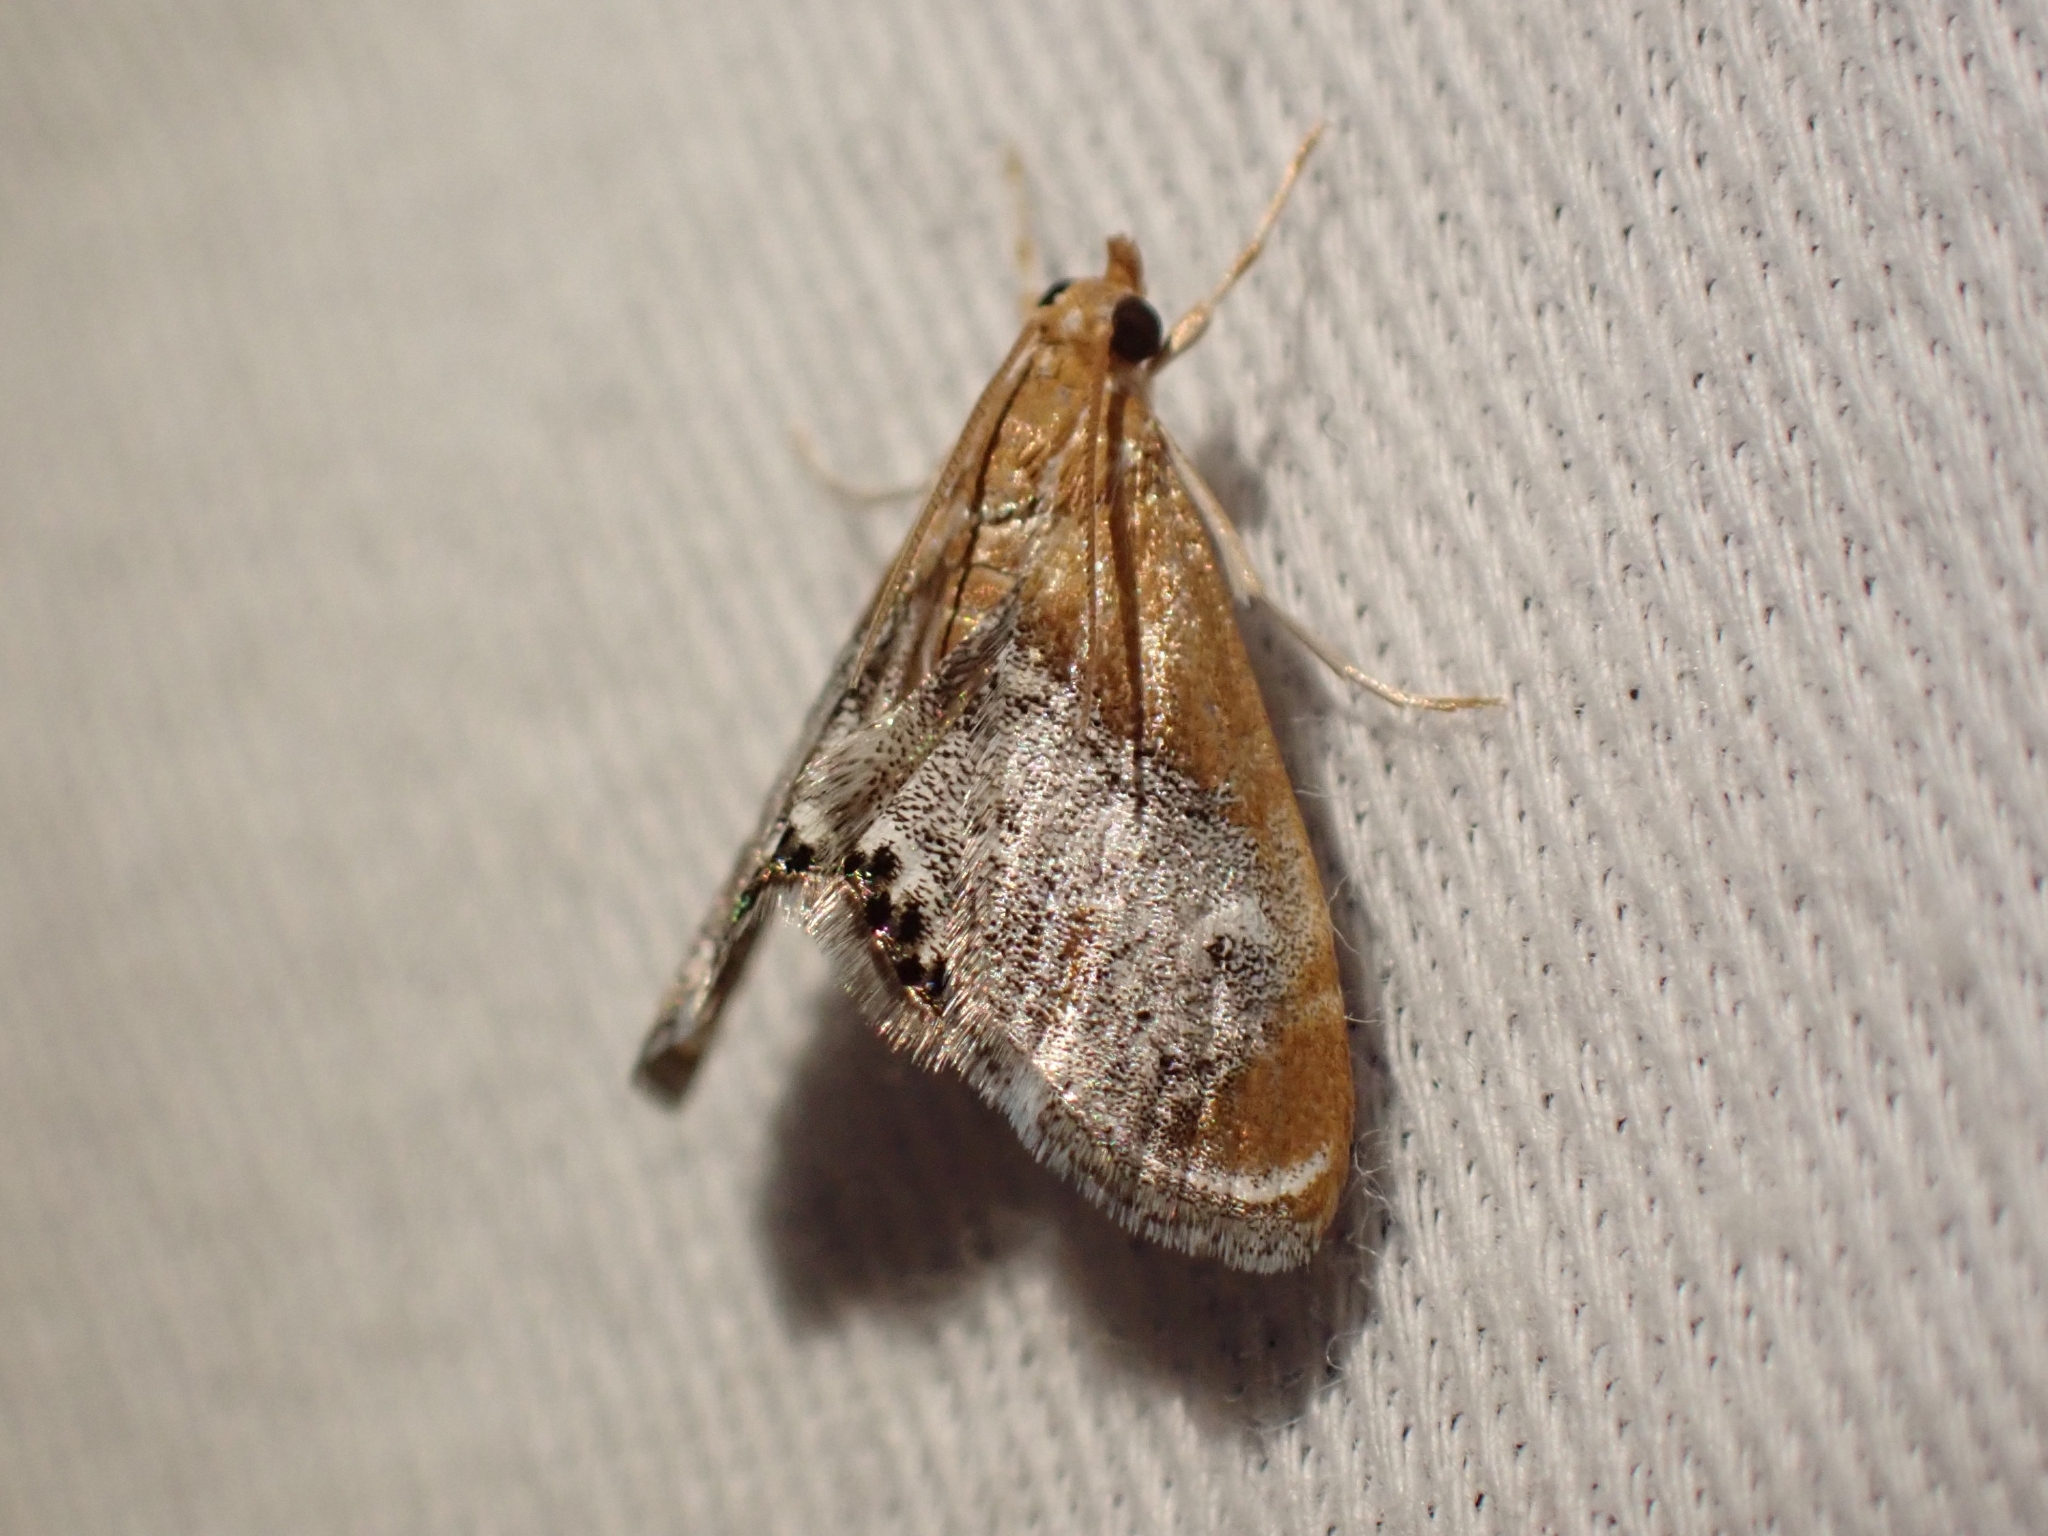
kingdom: Animalia
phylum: Arthropoda
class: Insecta
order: Lepidoptera
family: Crambidae
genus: Chalcoela
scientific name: Chalcoela iphitalis
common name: Sooty-winged chalcoela moth
